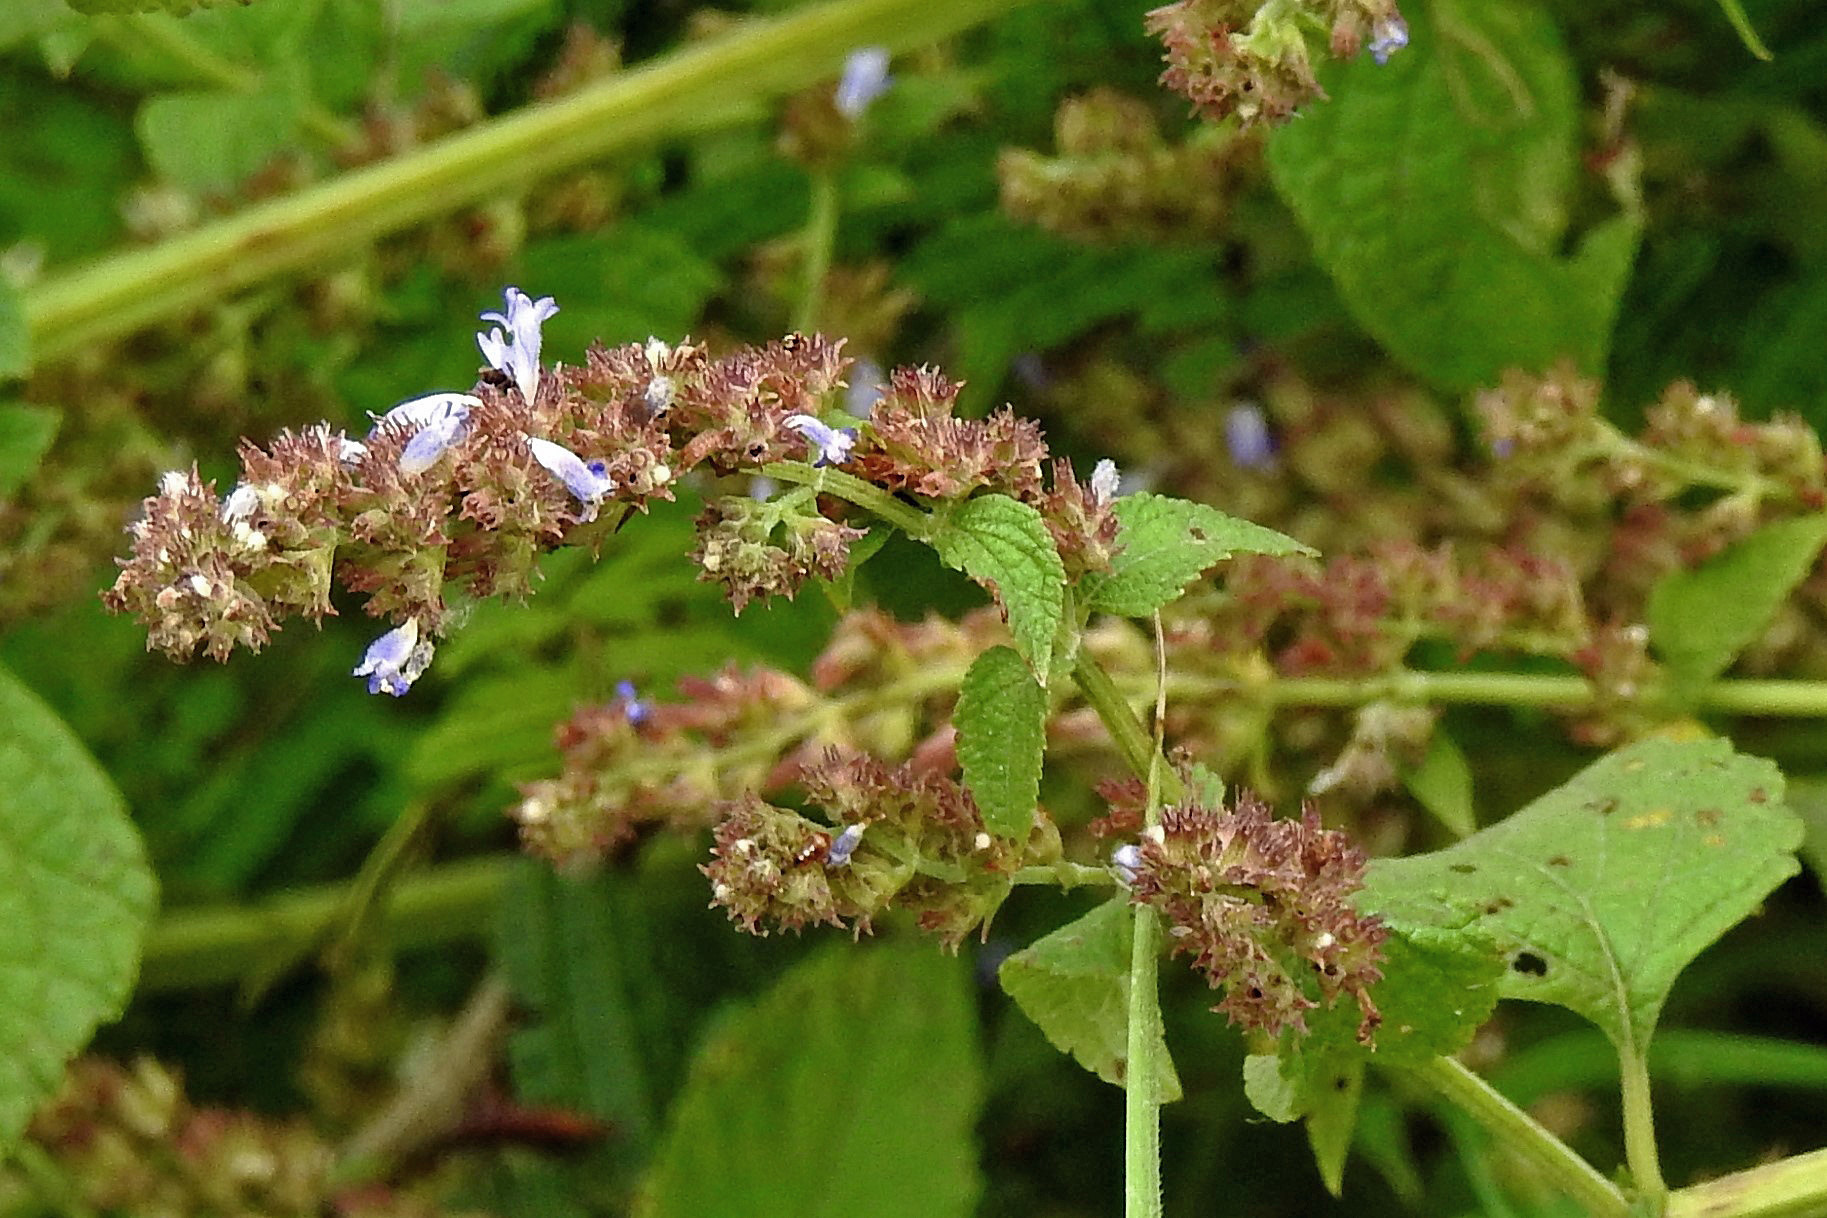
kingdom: Plantae
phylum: Tracheophyta
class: Magnoliopsida
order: Lamiales
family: Lamiaceae
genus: Cantinoa
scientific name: Cantinoa mutabilis
